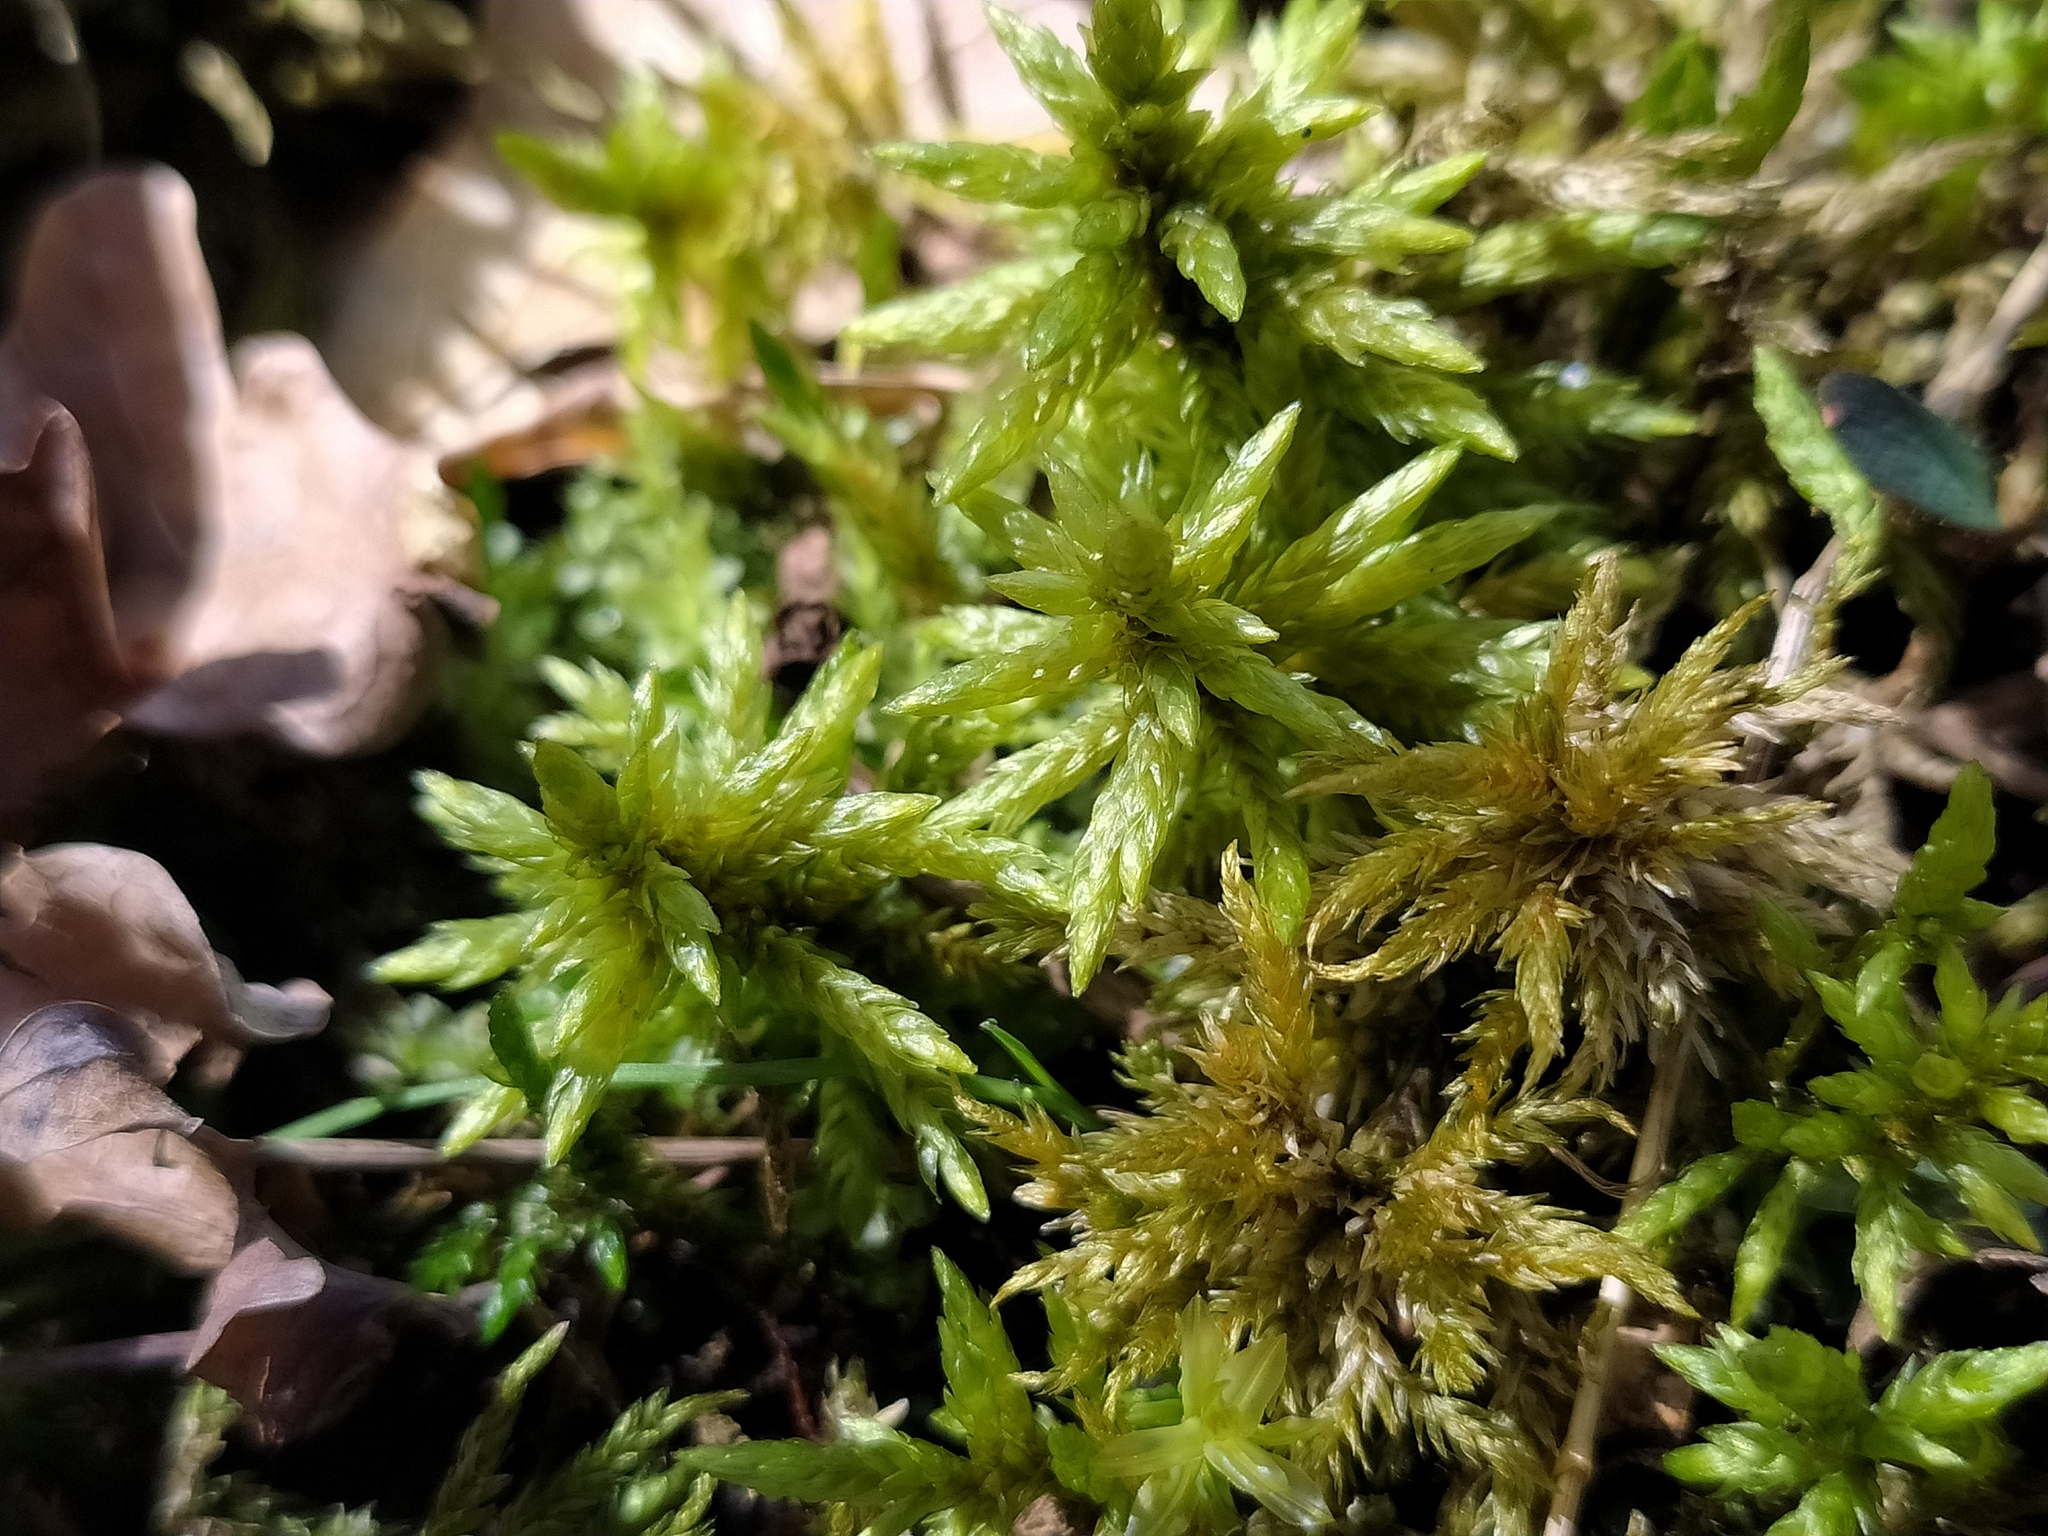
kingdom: Plantae
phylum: Bryophyta
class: Bryopsida
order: Hypnales
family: Climaciaceae
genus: Climacium
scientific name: Climacium dendroides
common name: Northern tree moss
